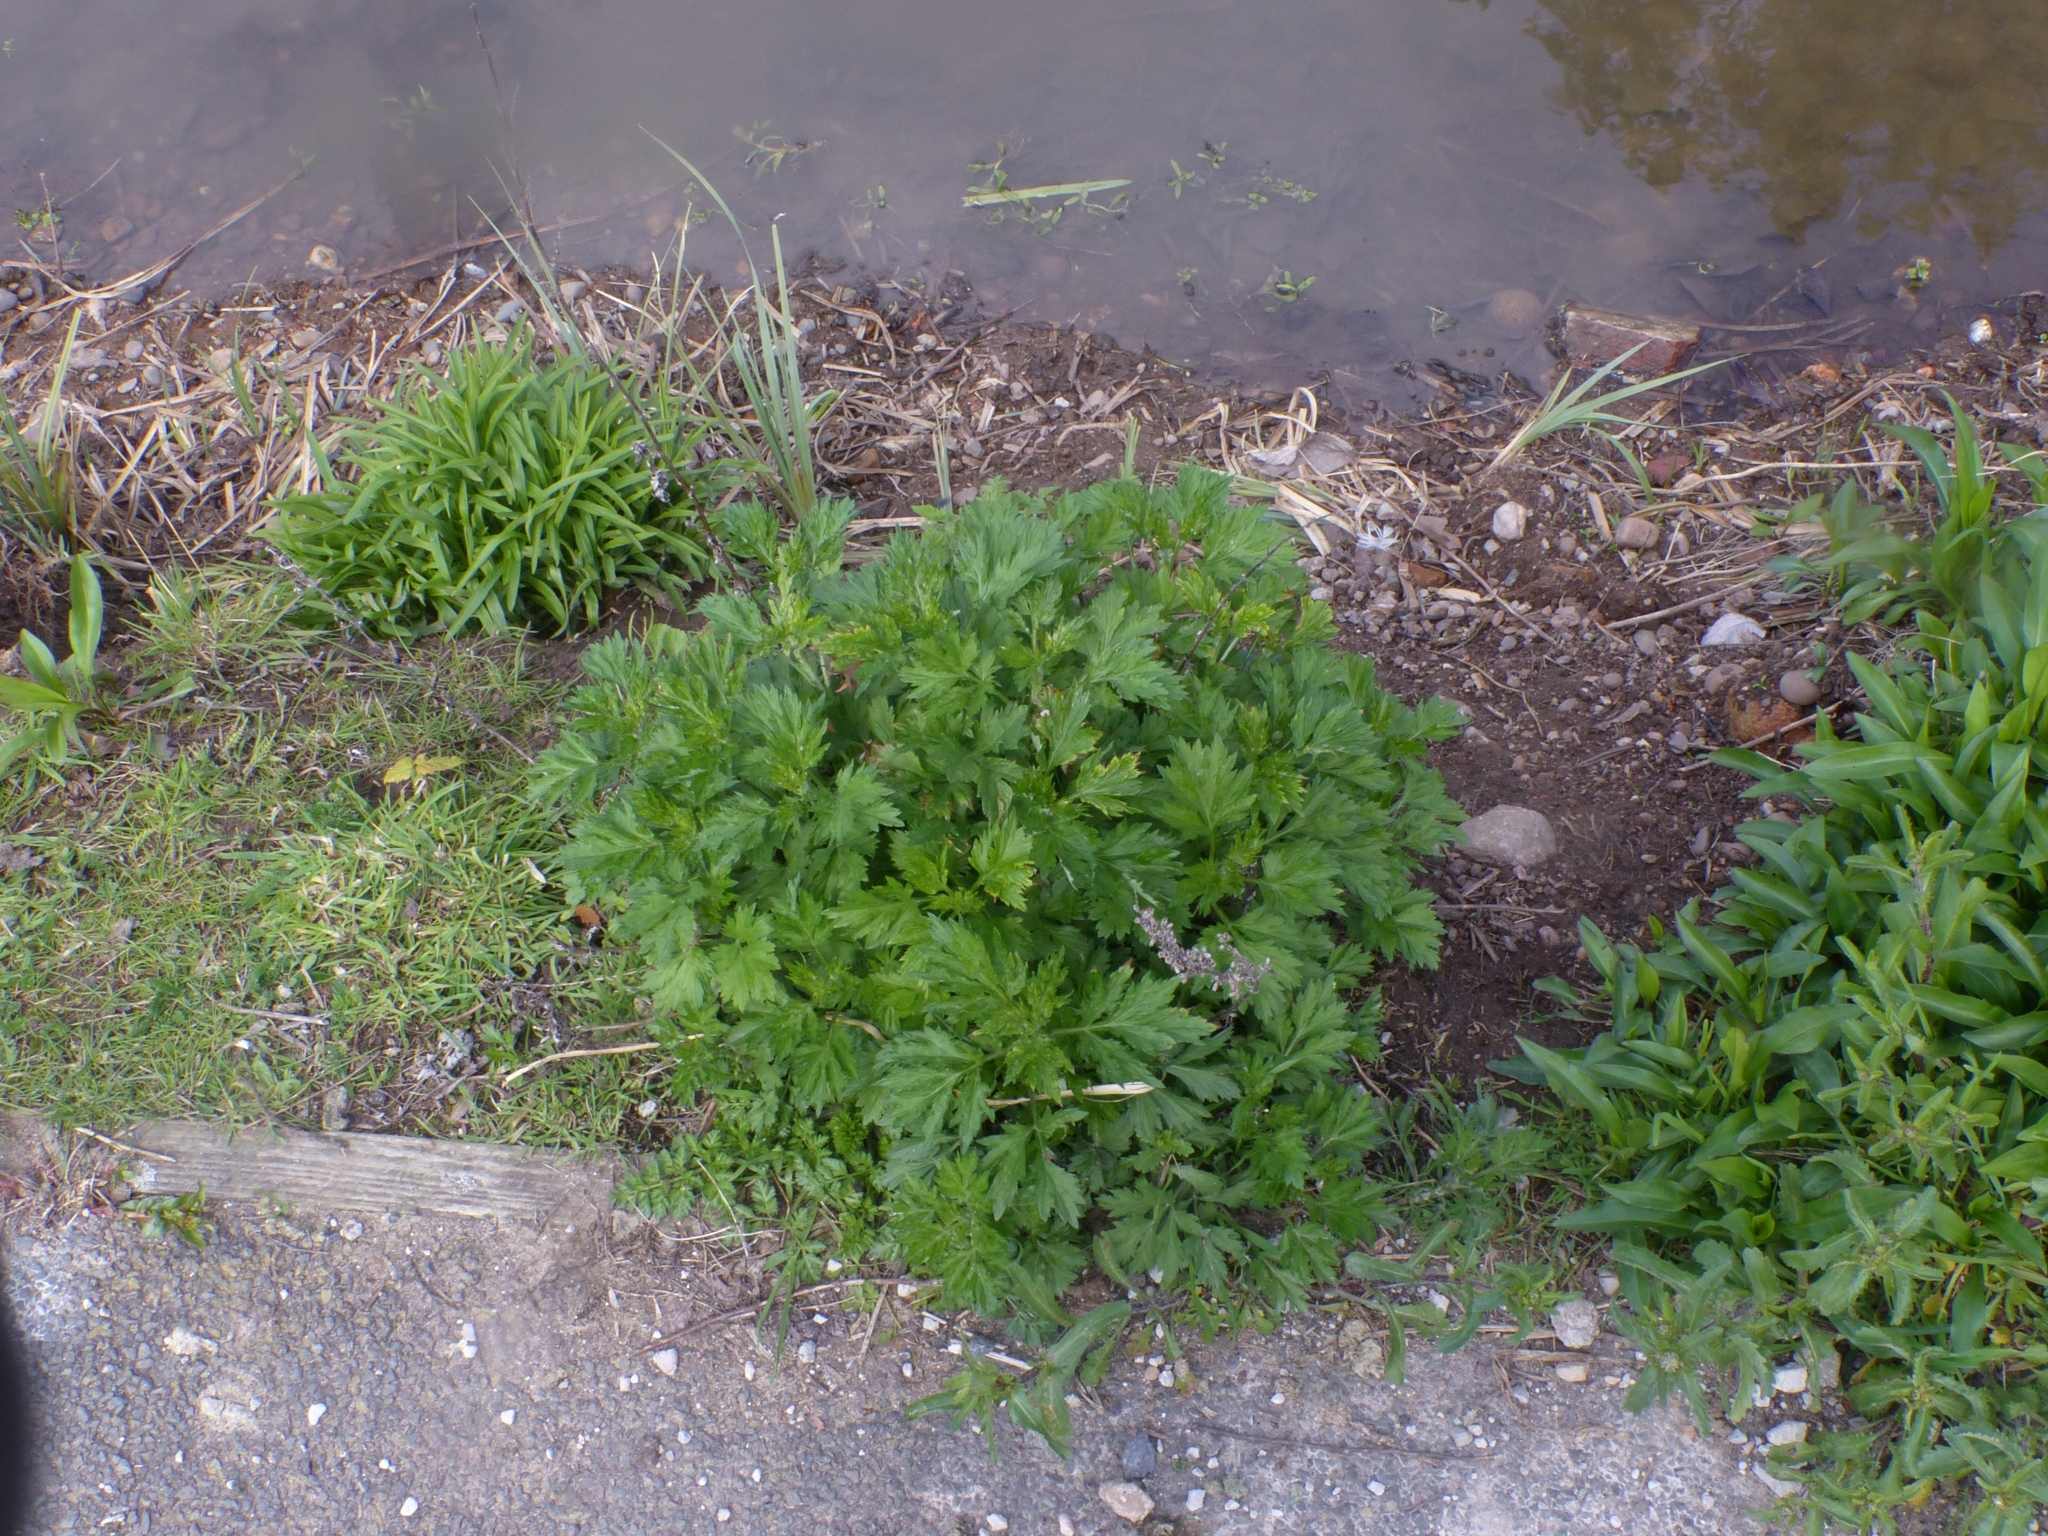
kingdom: Plantae
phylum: Tracheophyta
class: Magnoliopsida
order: Asterales
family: Asteraceae
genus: Artemisia
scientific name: Artemisia vulgaris
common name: Mugwort
